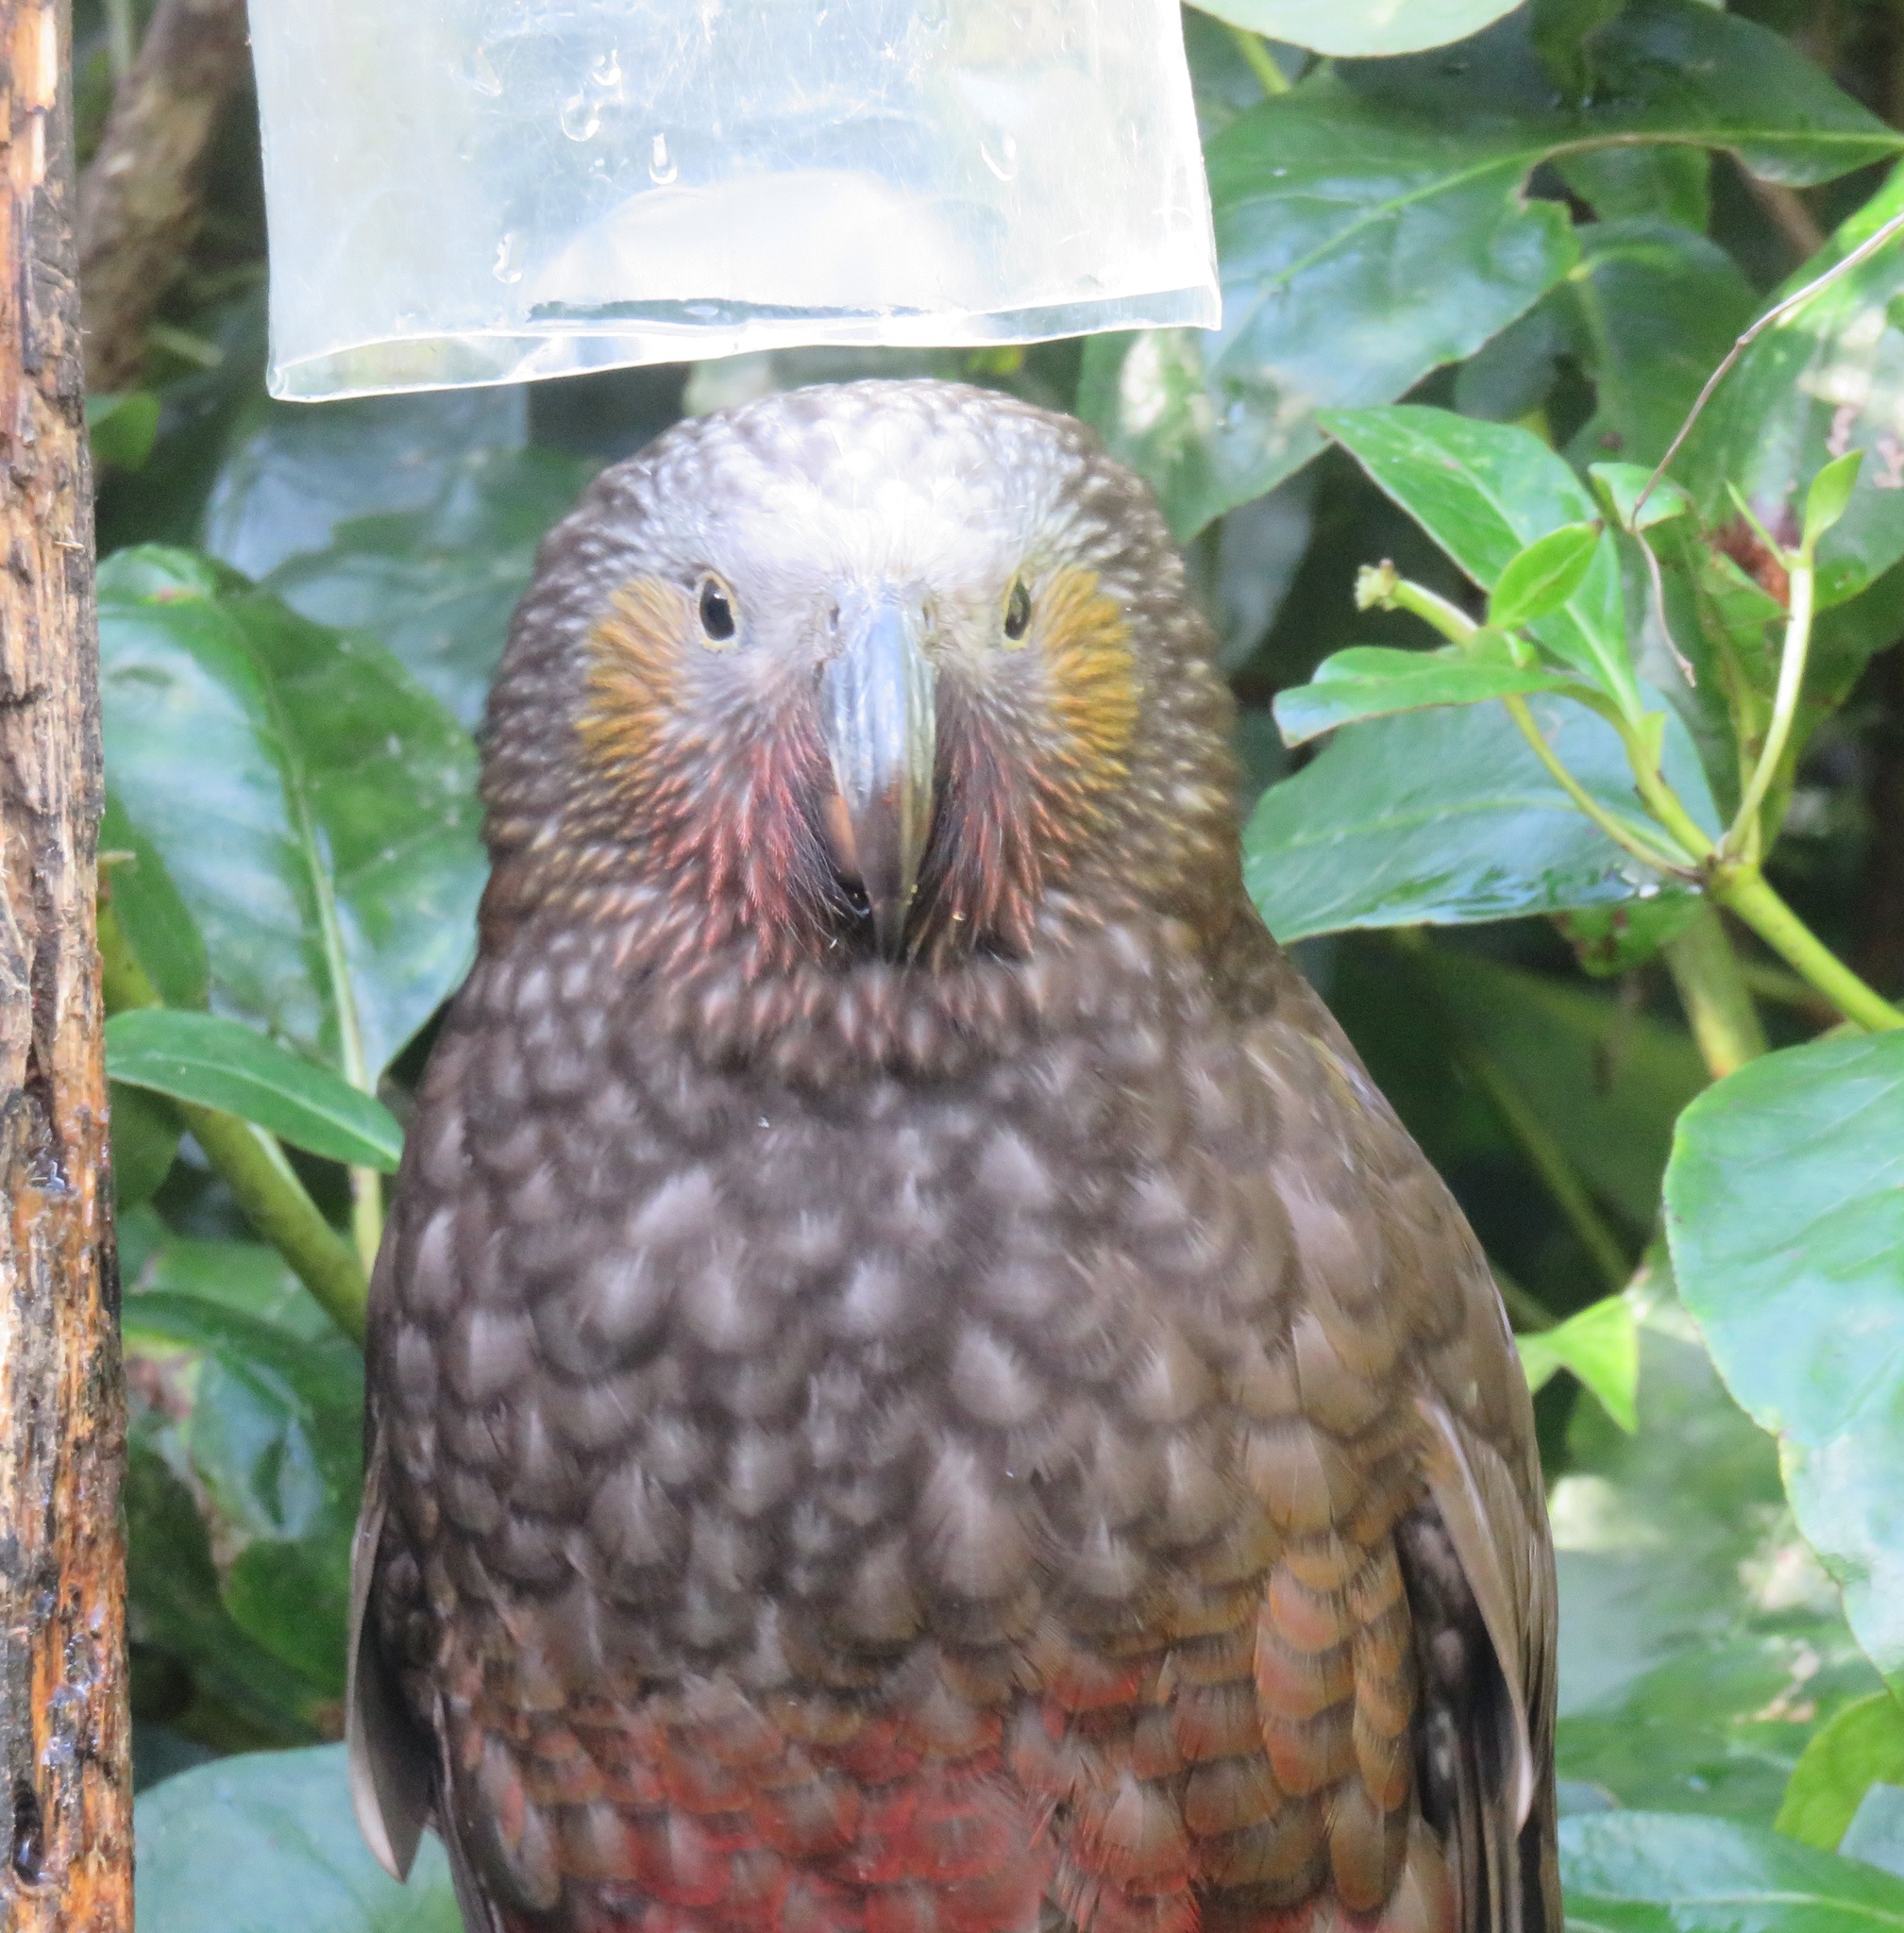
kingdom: Animalia
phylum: Chordata
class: Aves
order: Psittaciformes
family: Psittacidae
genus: Nestor
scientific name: Nestor meridionalis
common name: New zealand kaka
